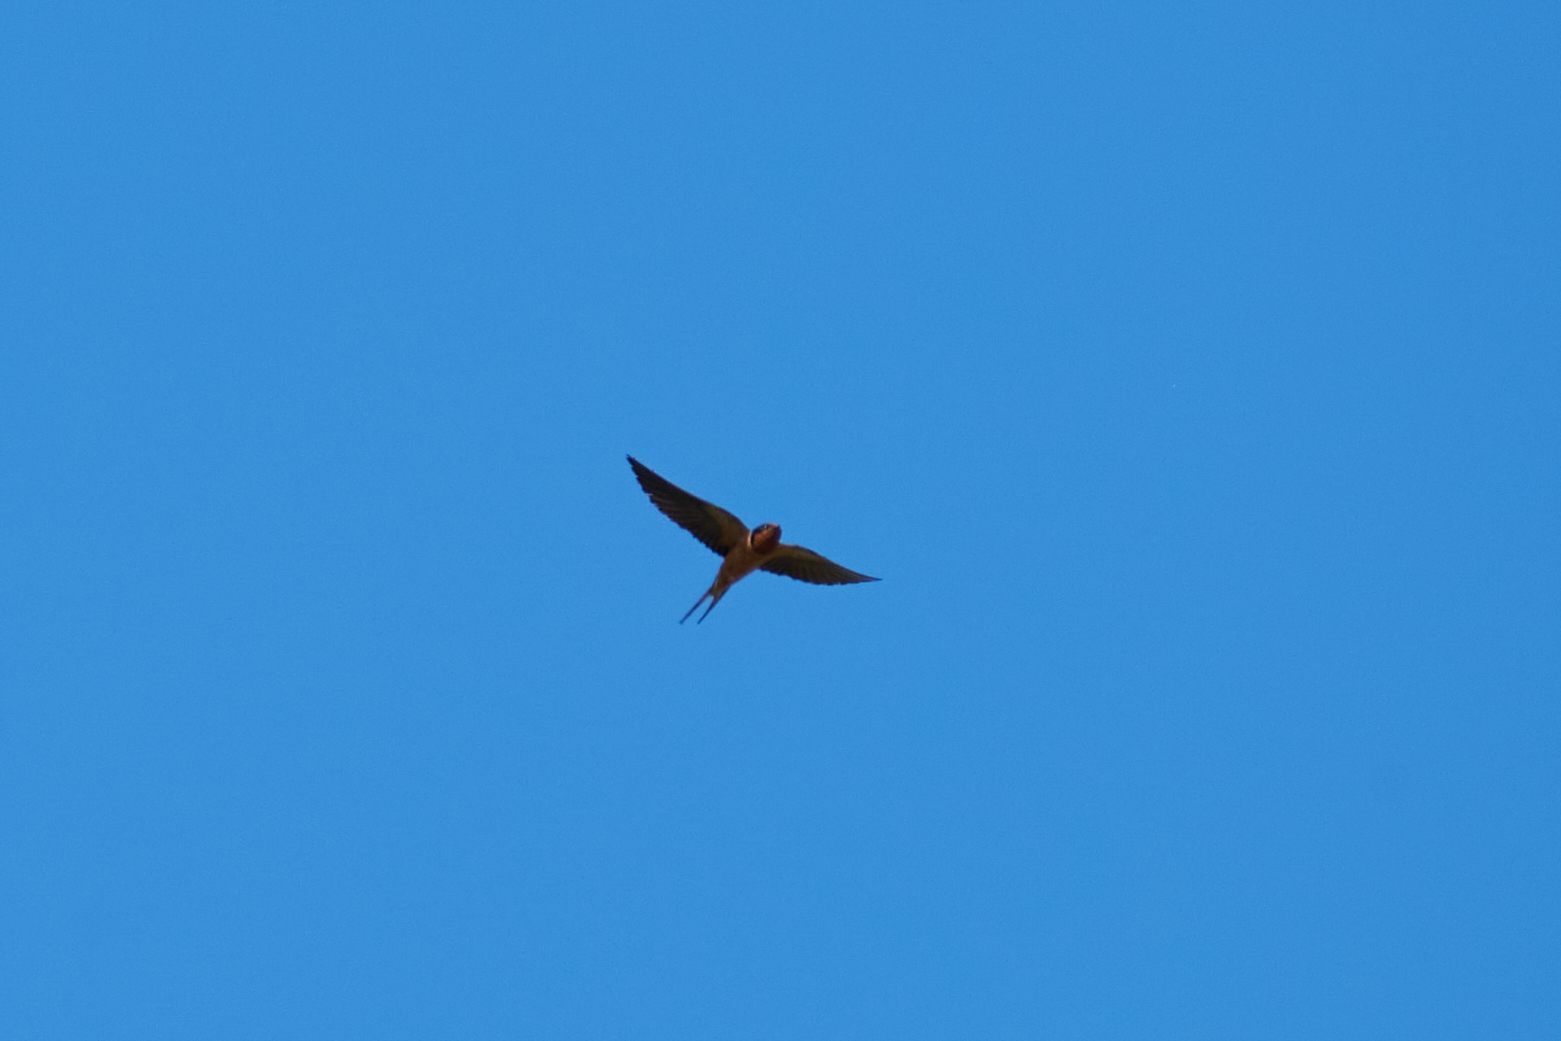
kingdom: Animalia
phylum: Chordata
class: Aves
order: Passeriformes
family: Hirundinidae
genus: Hirundo
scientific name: Hirundo rustica
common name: Barn swallow
